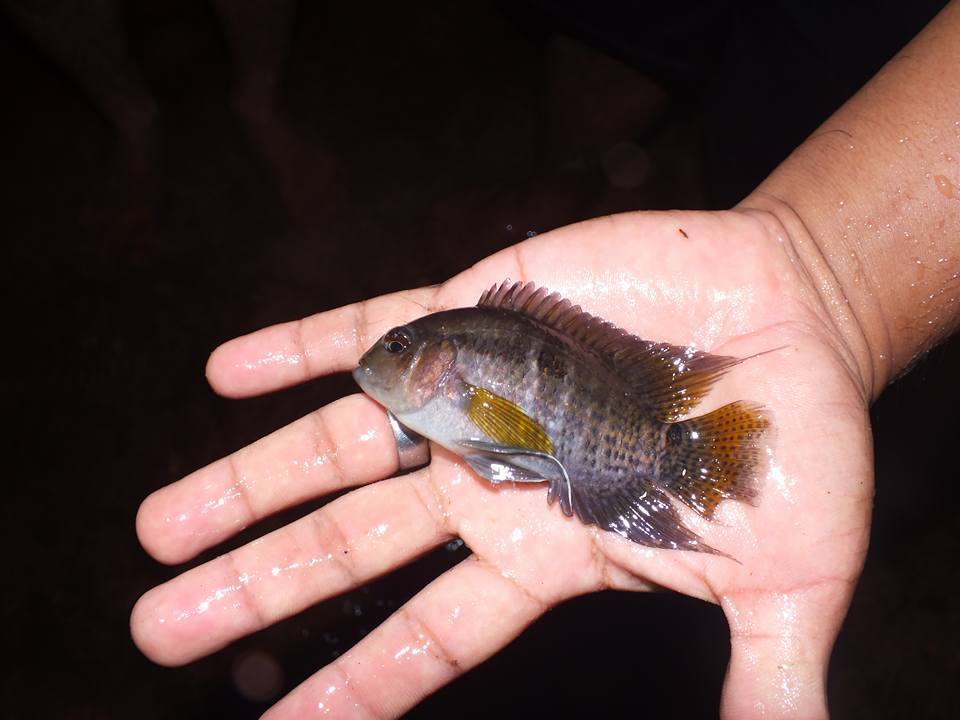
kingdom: Animalia
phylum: Chordata
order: Perciformes
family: Cichlidae
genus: Cichlasoma
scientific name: Cichlasoma amazonarum
